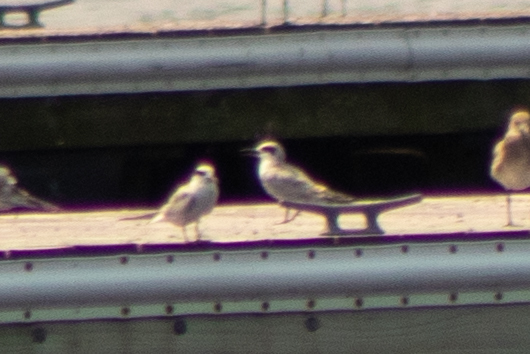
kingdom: Animalia
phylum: Chordata
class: Aves
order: Charadriiformes
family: Laridae
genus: Sterna
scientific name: Sterna forsteri
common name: Forster's tern
